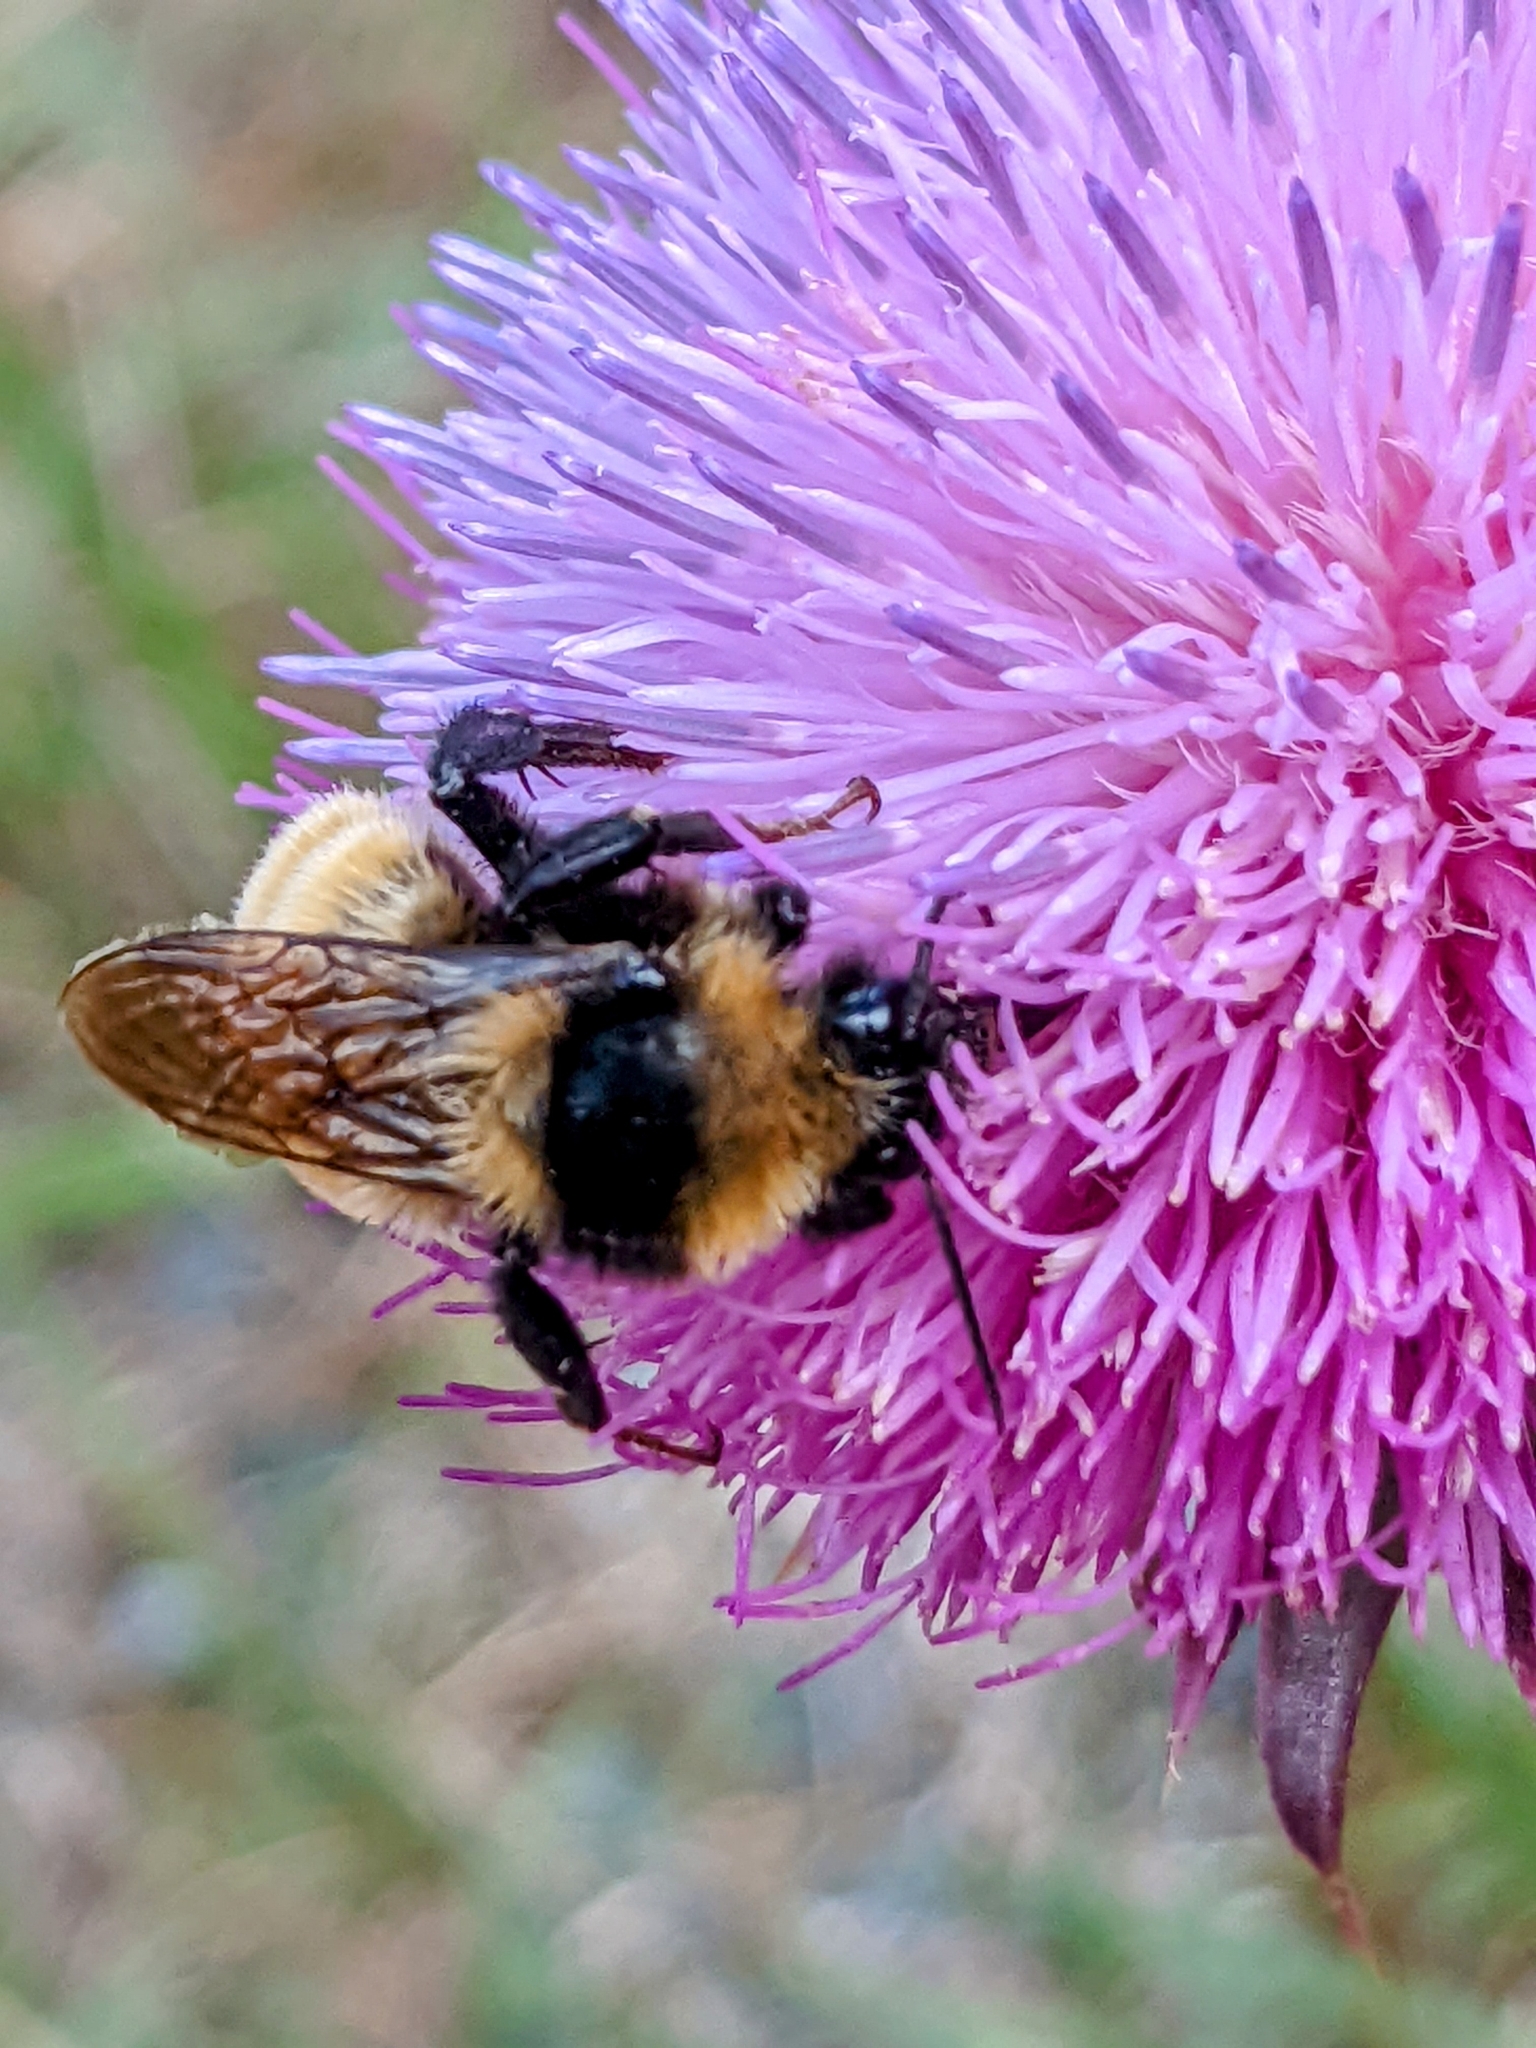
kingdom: Animalia
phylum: Arthropoda
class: Insecta
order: Hymenoptera
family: Apidae
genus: Bombus
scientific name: Bombus borealis
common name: Northern amber bumble bee
